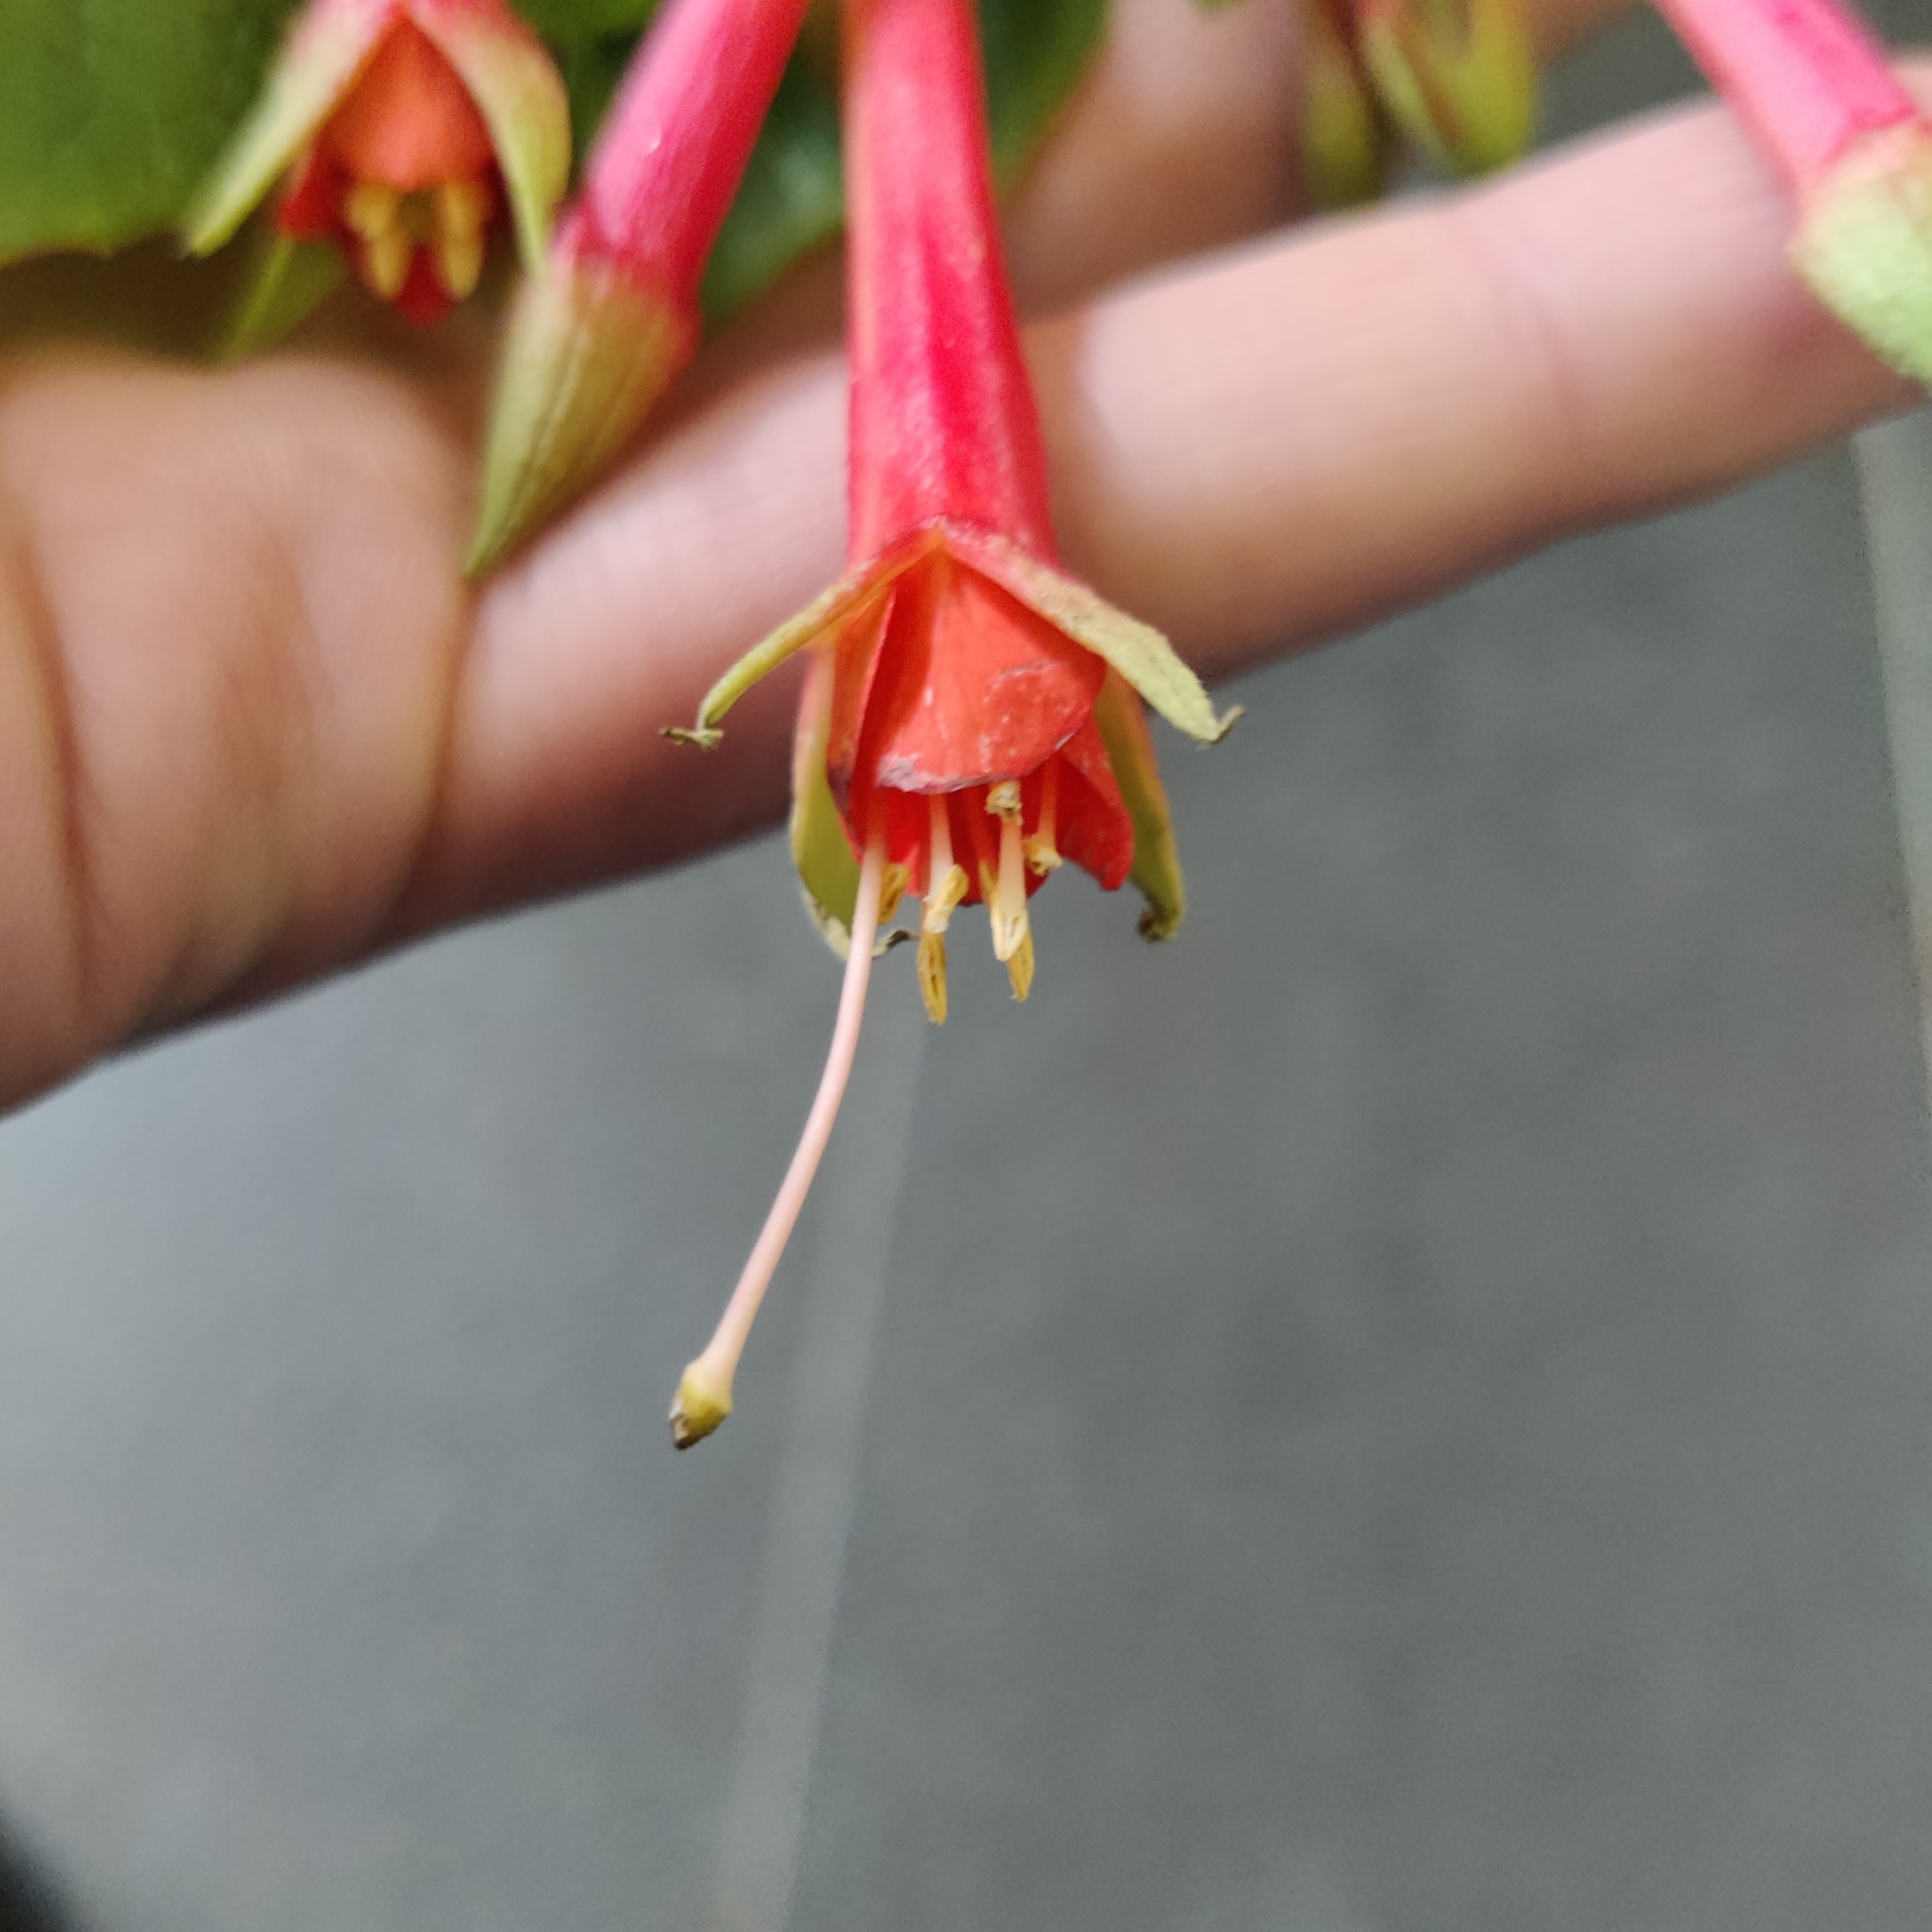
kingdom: Plantae
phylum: Tracheophyta
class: Magnoliopsida
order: Myrtales
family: Onagraceae
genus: Fuchsia
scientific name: Fuchsia fulgens
